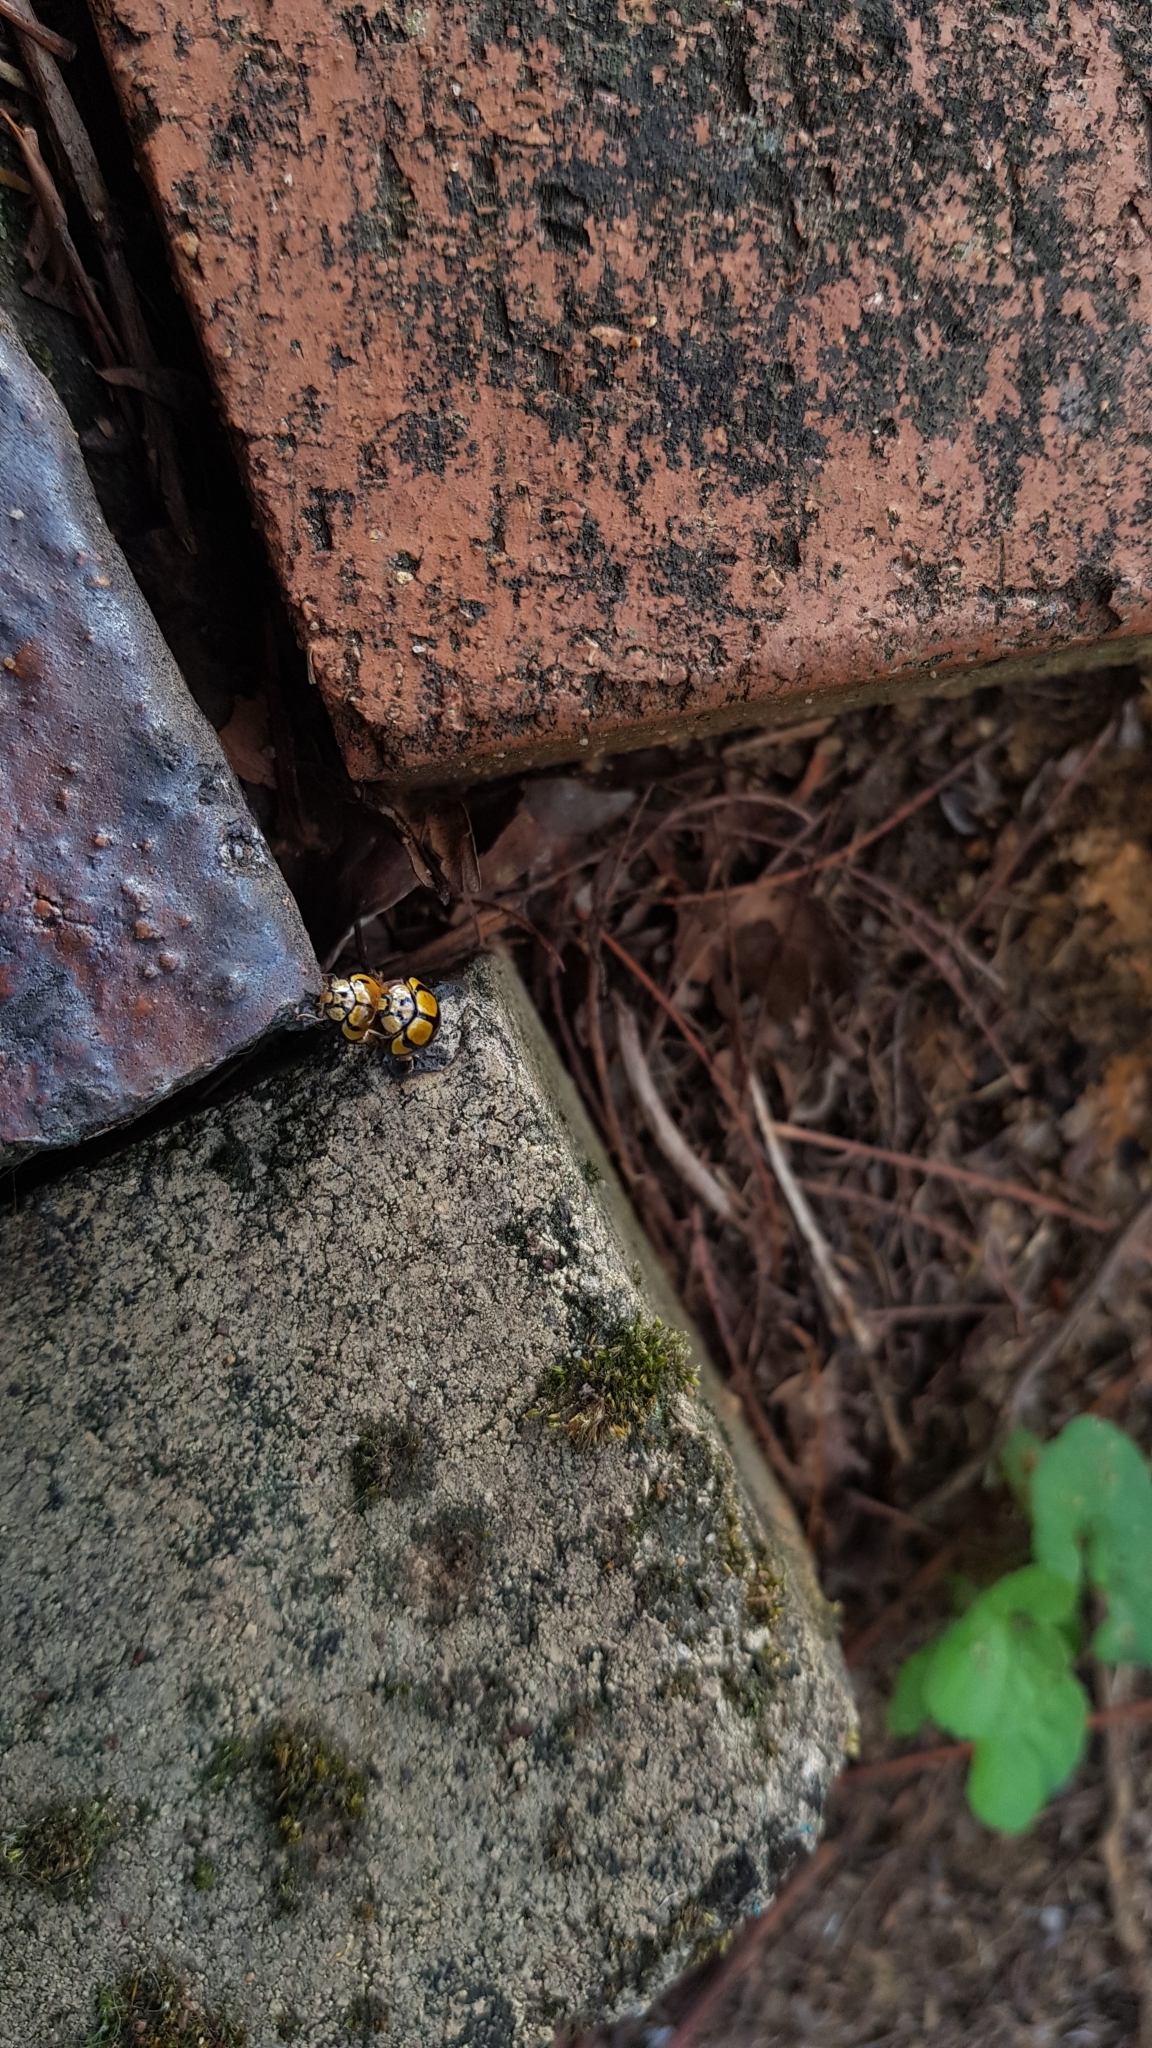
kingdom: Animalia
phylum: Arthropoda
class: Insecta
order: Coleoptera
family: Coccinellidae
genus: Harmonia
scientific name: Harmonia
